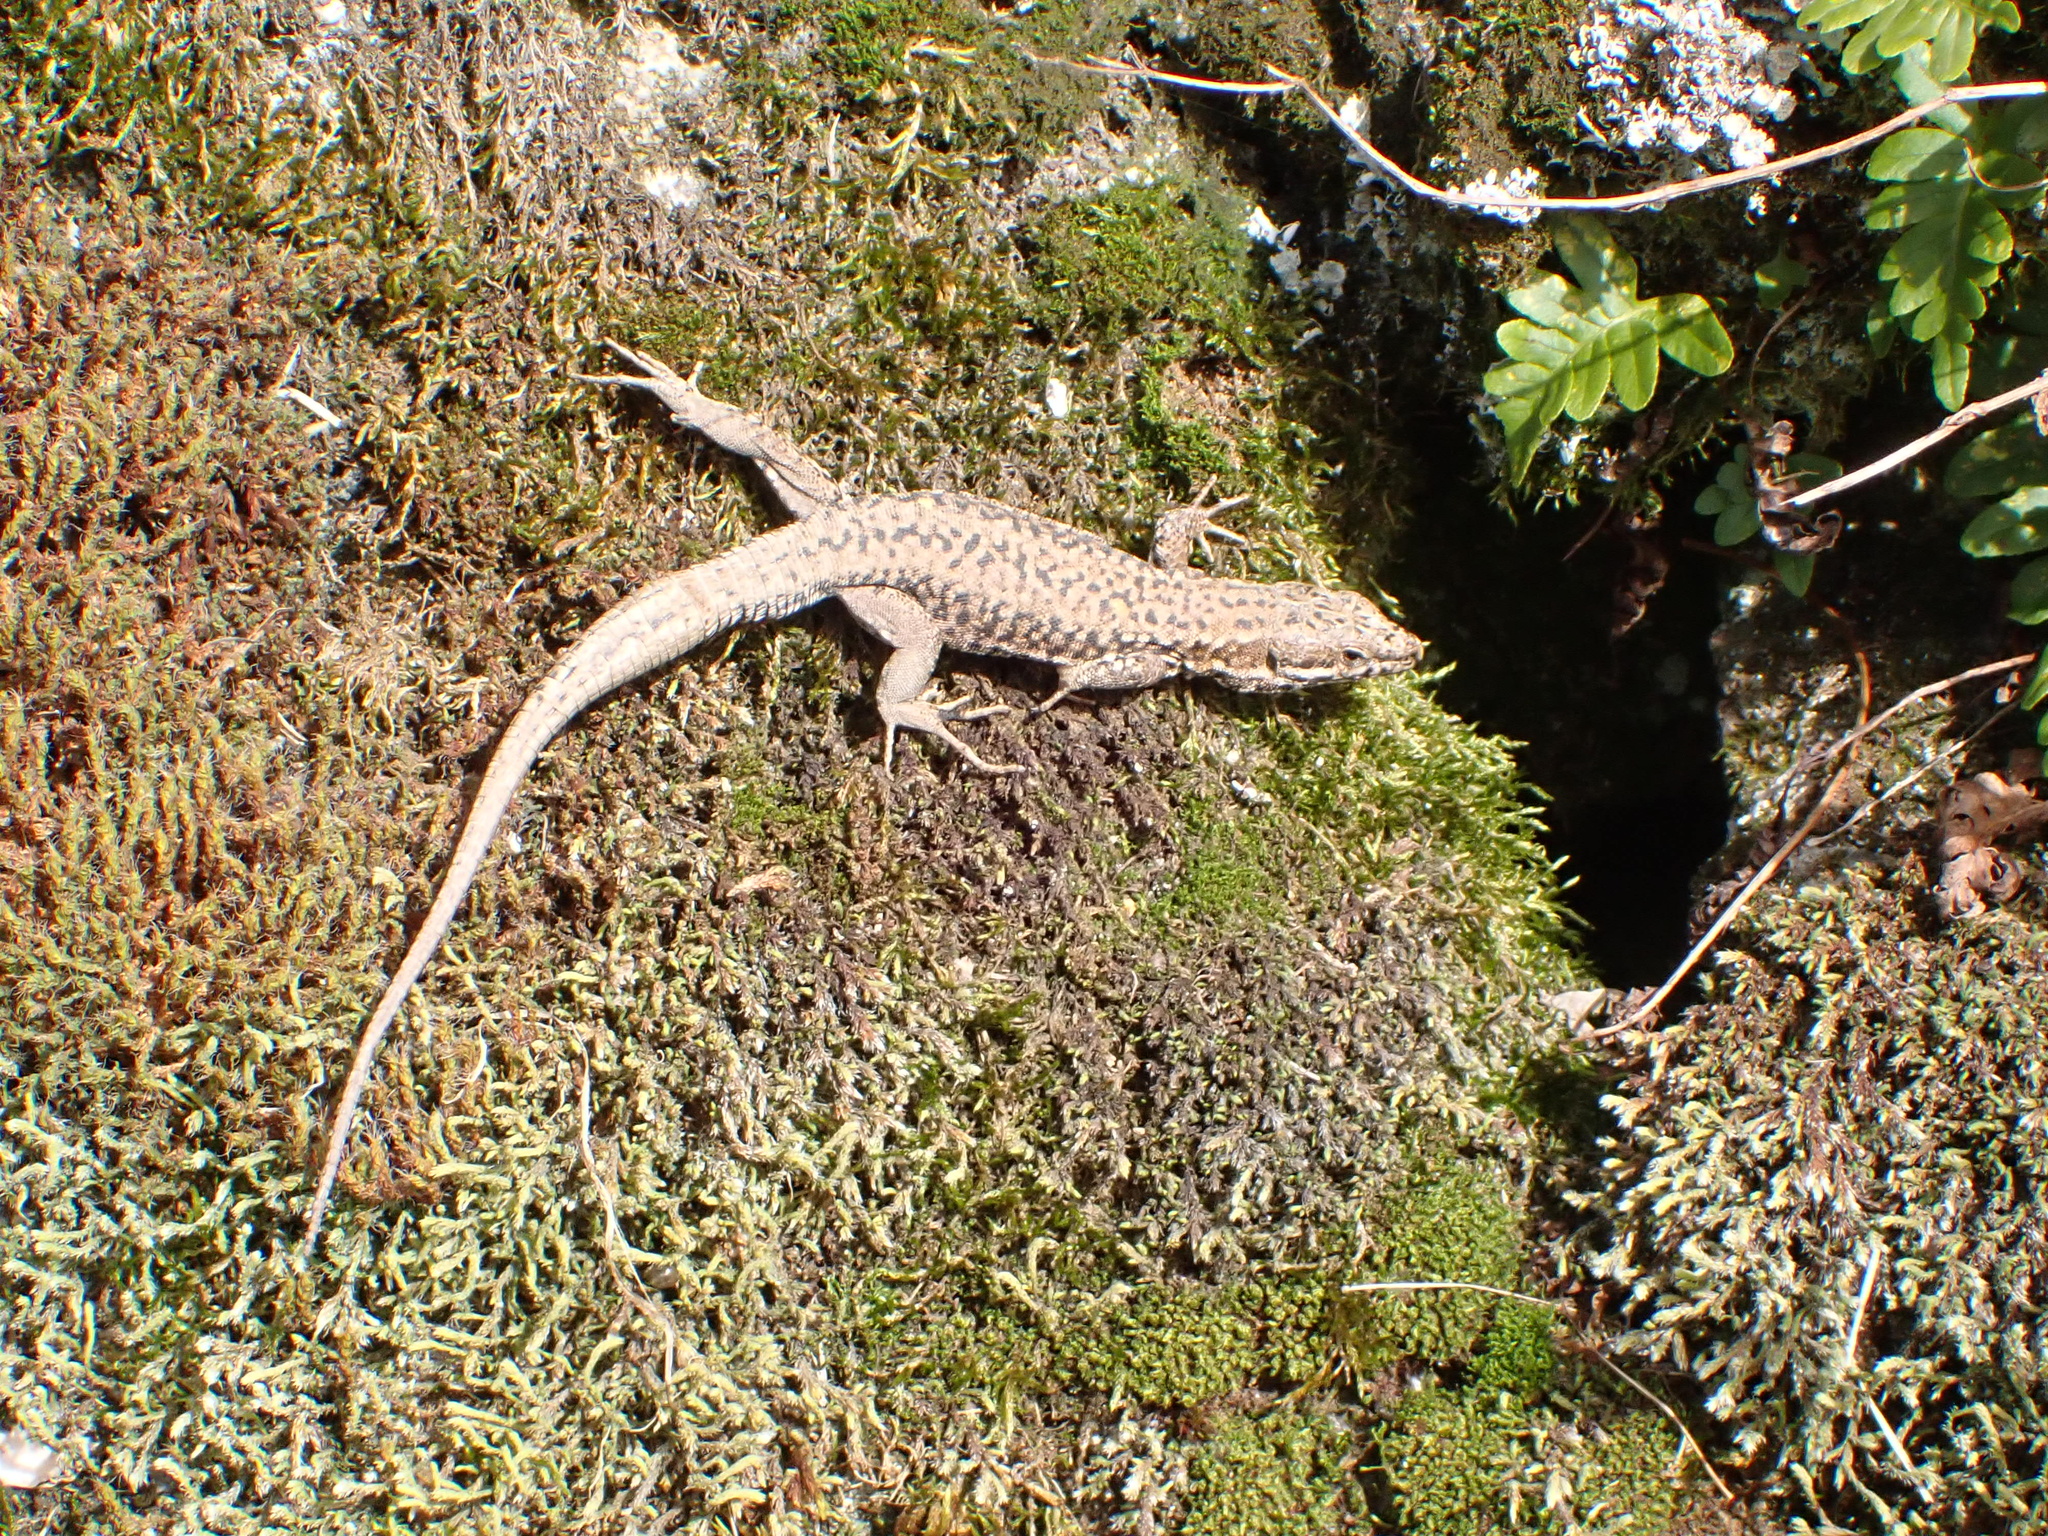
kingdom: Animalia
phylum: Chordata
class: Squamata
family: Lacertidae
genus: Podarcis
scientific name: Podarcis muralis
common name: Common wall lizard
